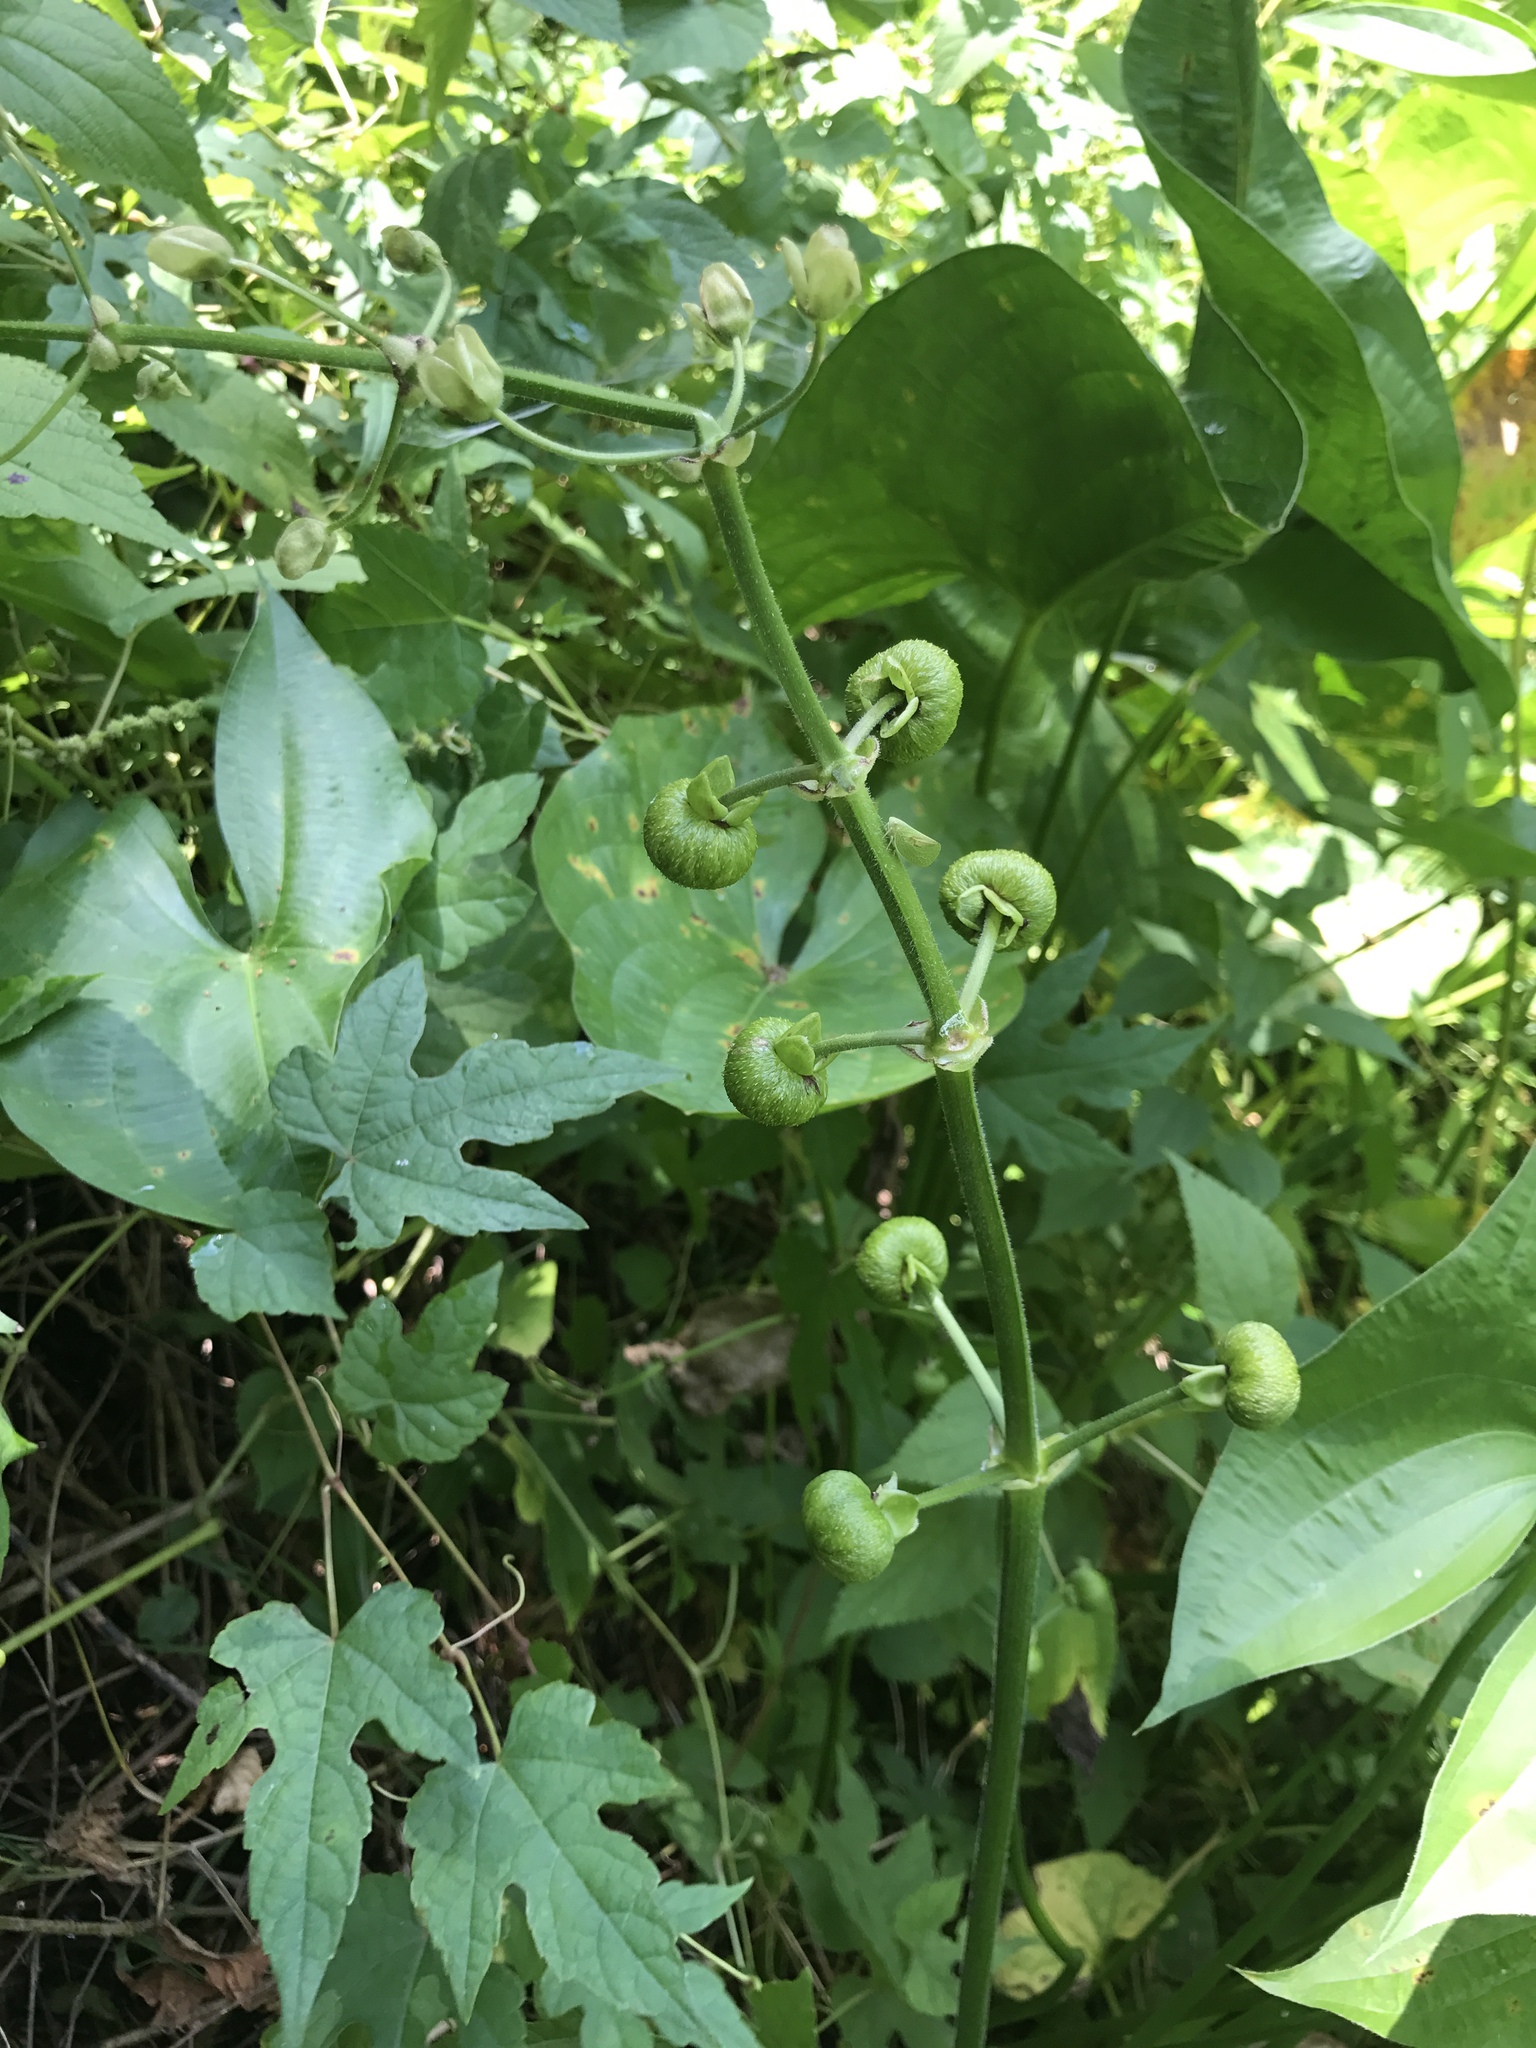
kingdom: Plantae
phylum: Tracheophyta
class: Liliopsida
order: Alismatales
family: Alismataceae
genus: Sagittaria
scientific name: Sagittaria latifolia
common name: Duck-potato
